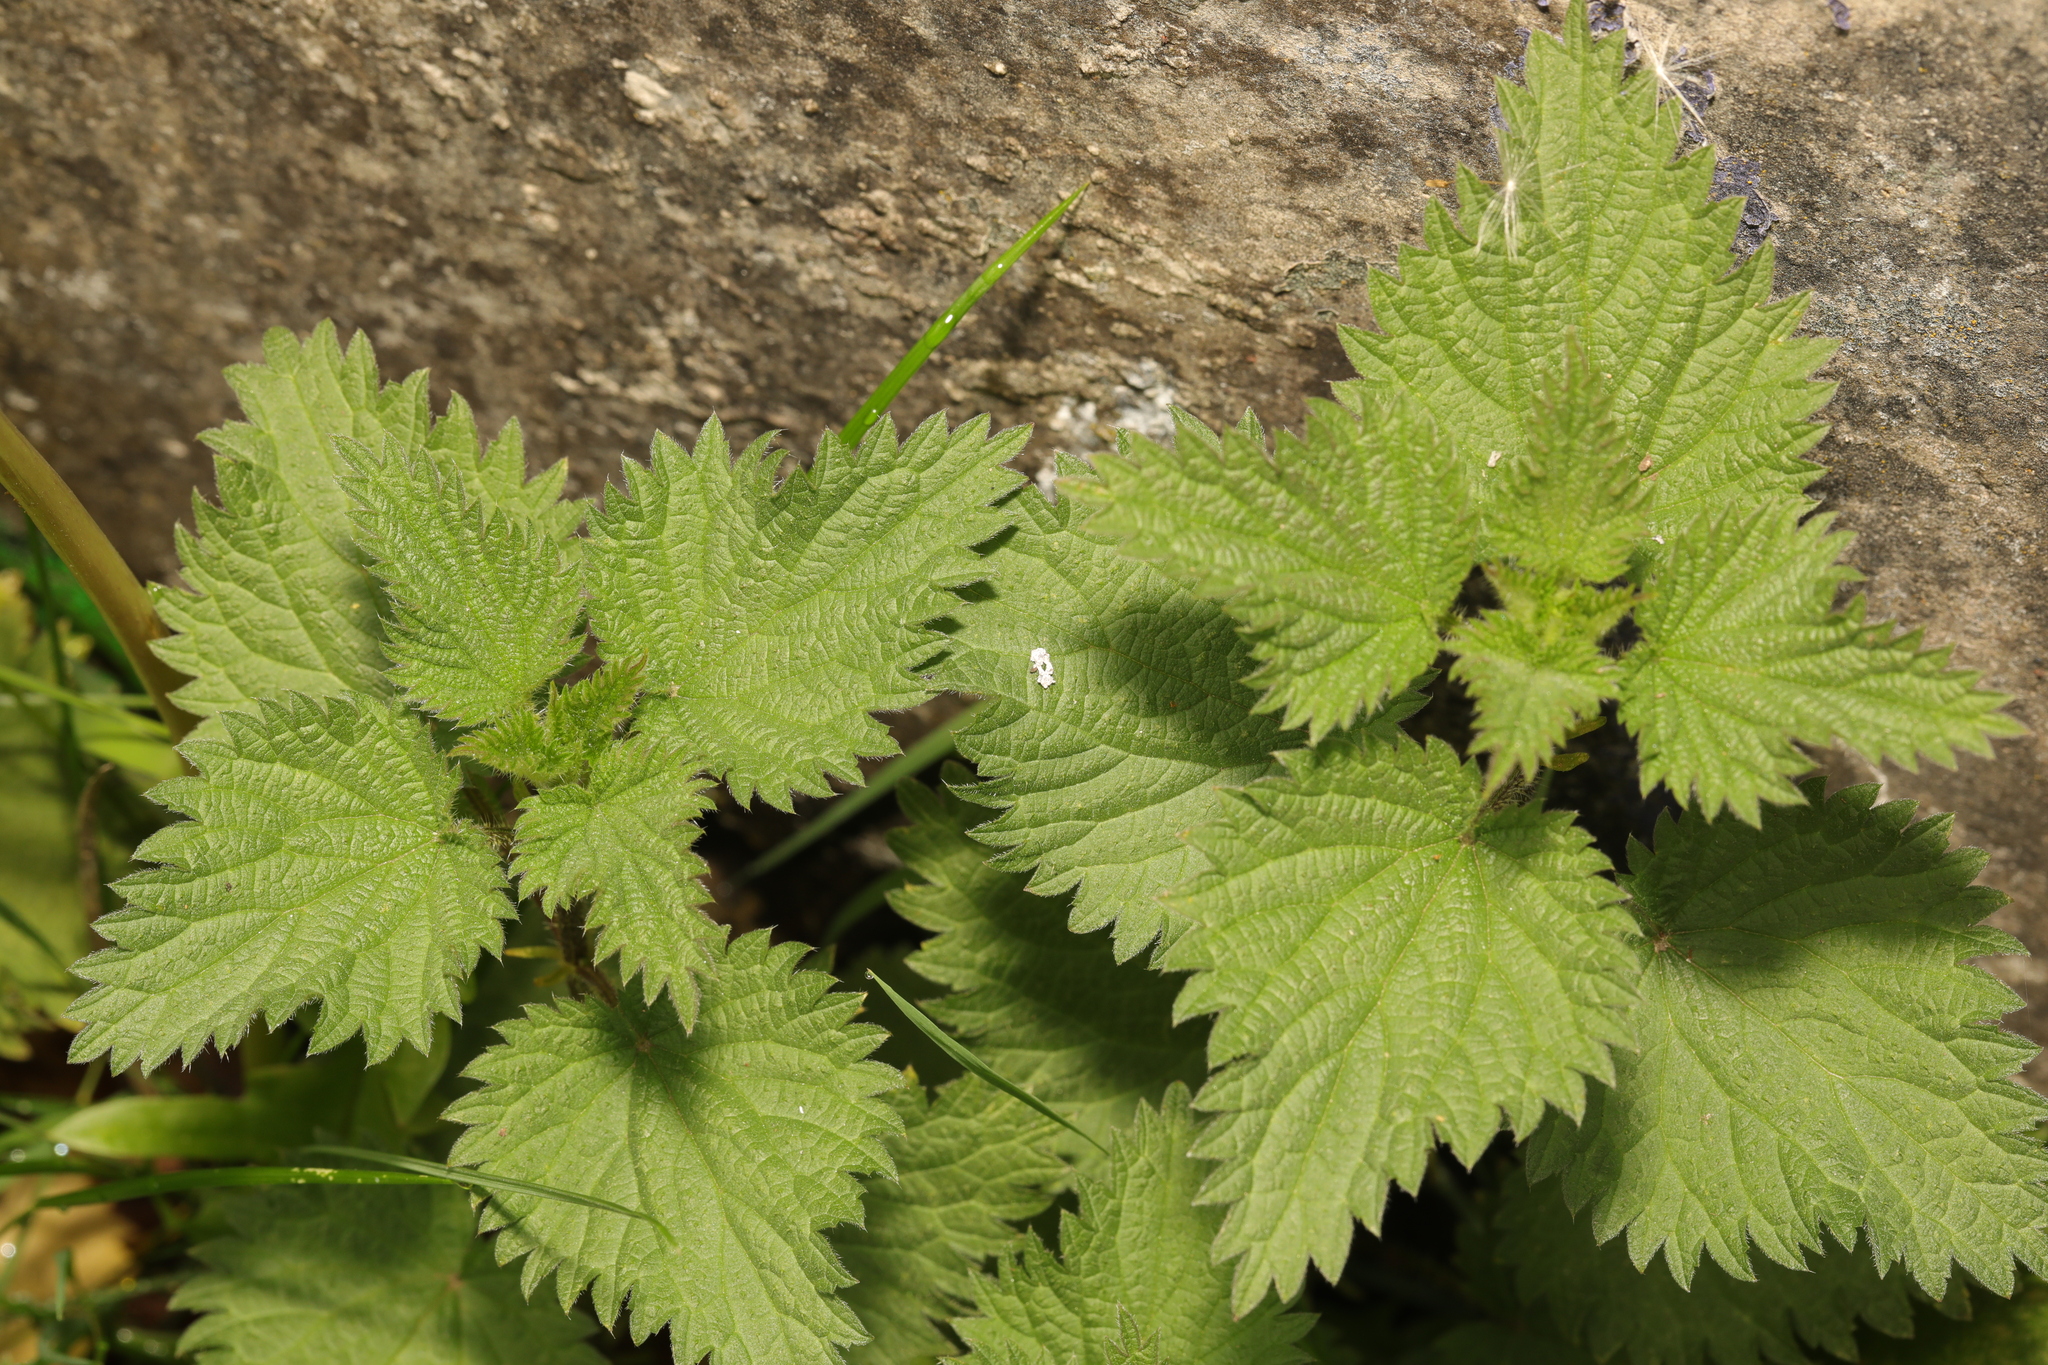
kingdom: Plantae
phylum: Tracheophyta
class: Magnoliopsida
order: Rosales
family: Urticaceae
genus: Urtica
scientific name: Urtica dioica
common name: Common nettle
